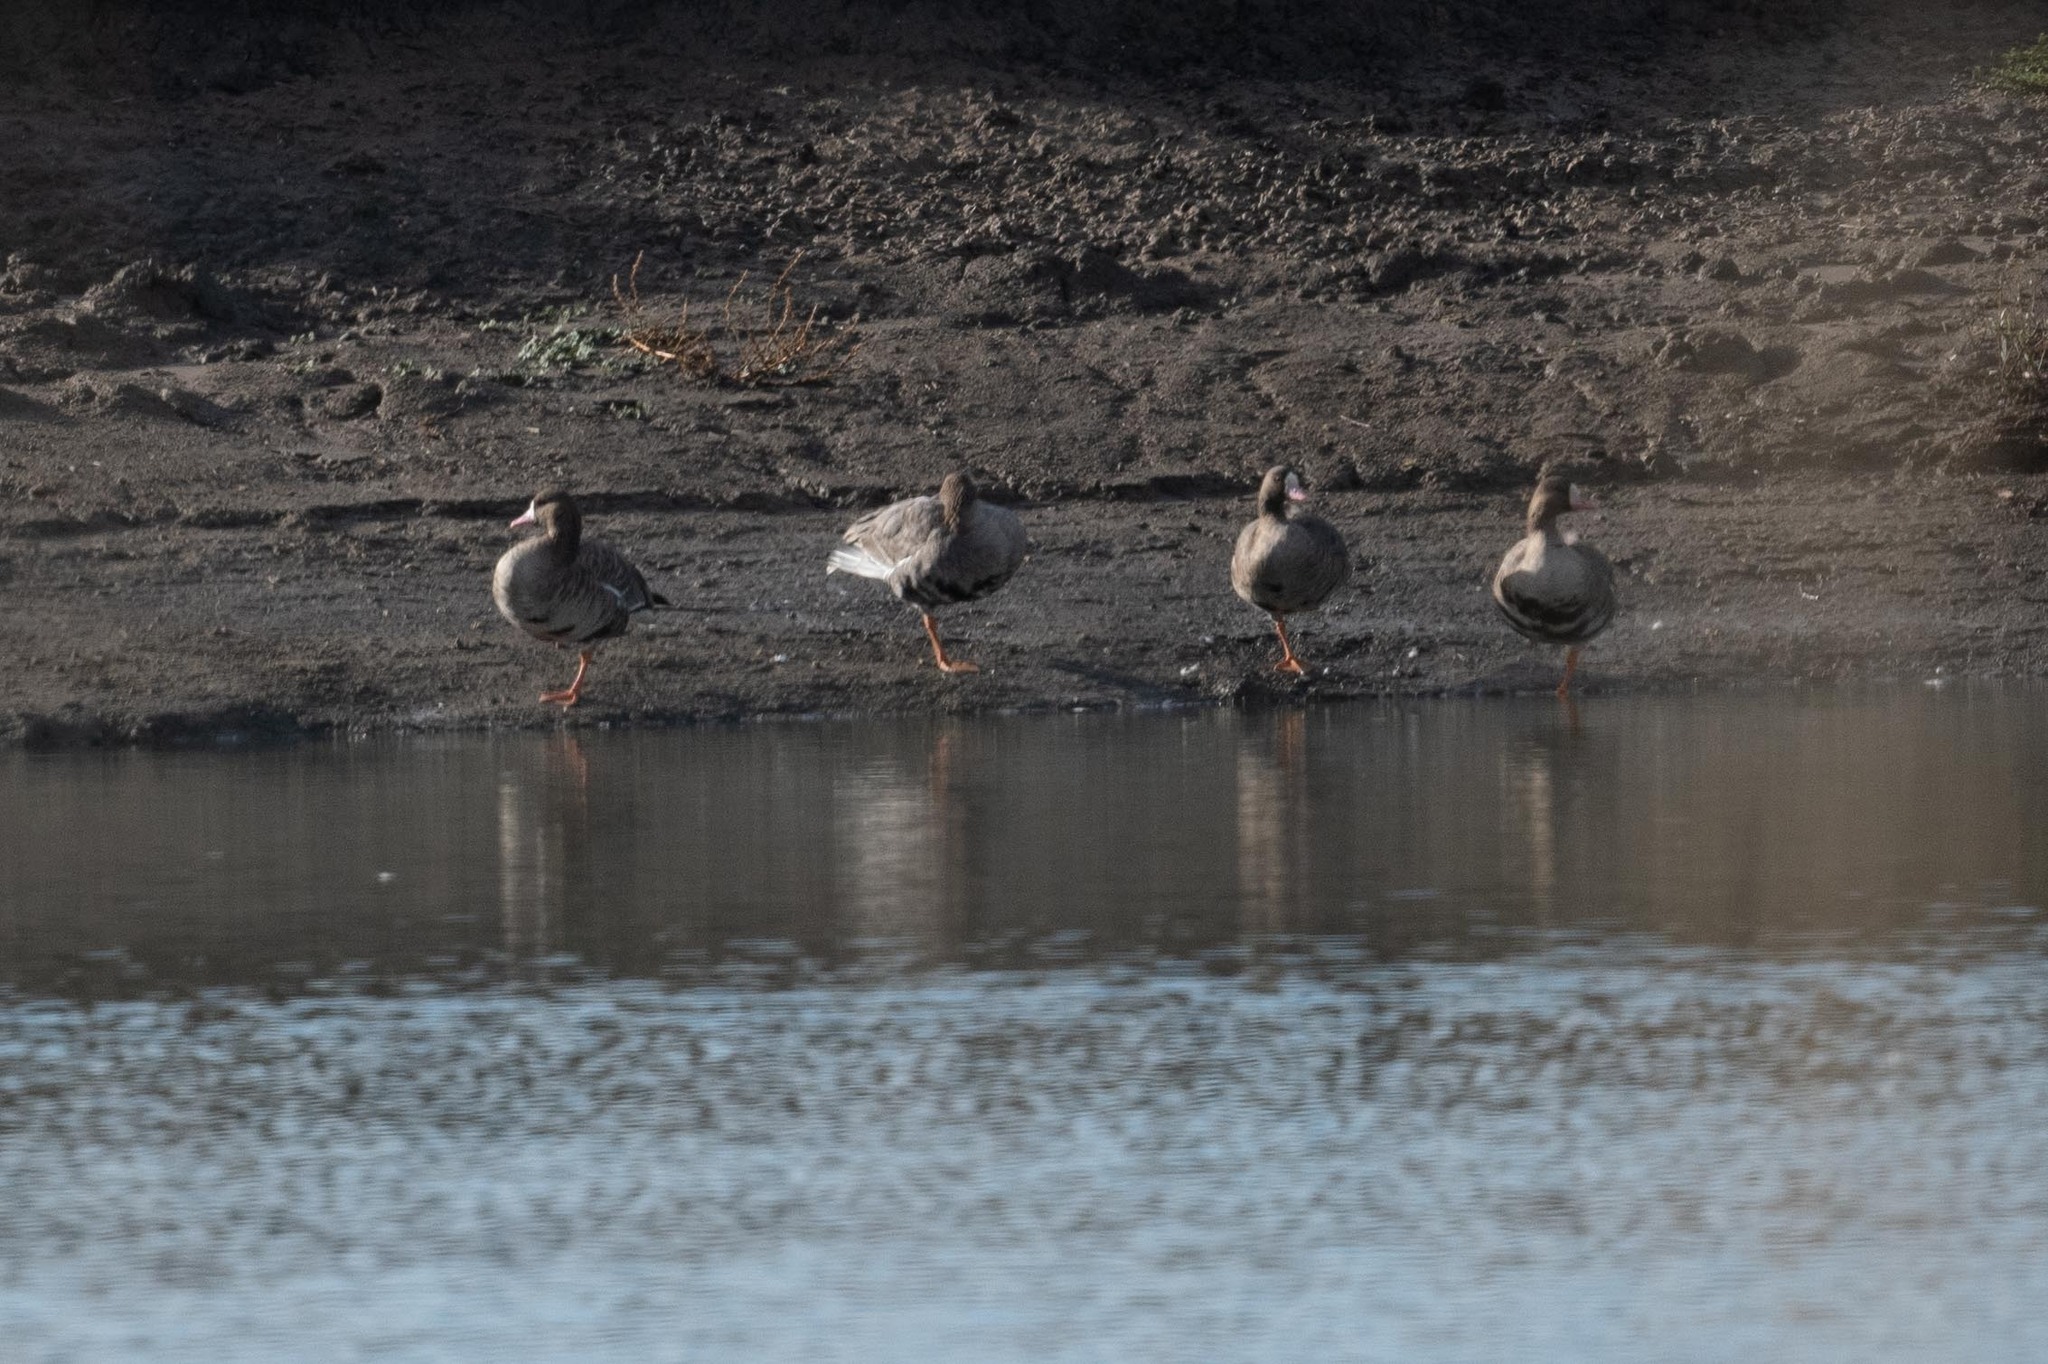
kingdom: Animalia
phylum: Chordata
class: Aves
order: Anseriformes
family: Anatidae
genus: Anser
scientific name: Anser albifrons
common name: Greater white-fronted goose
